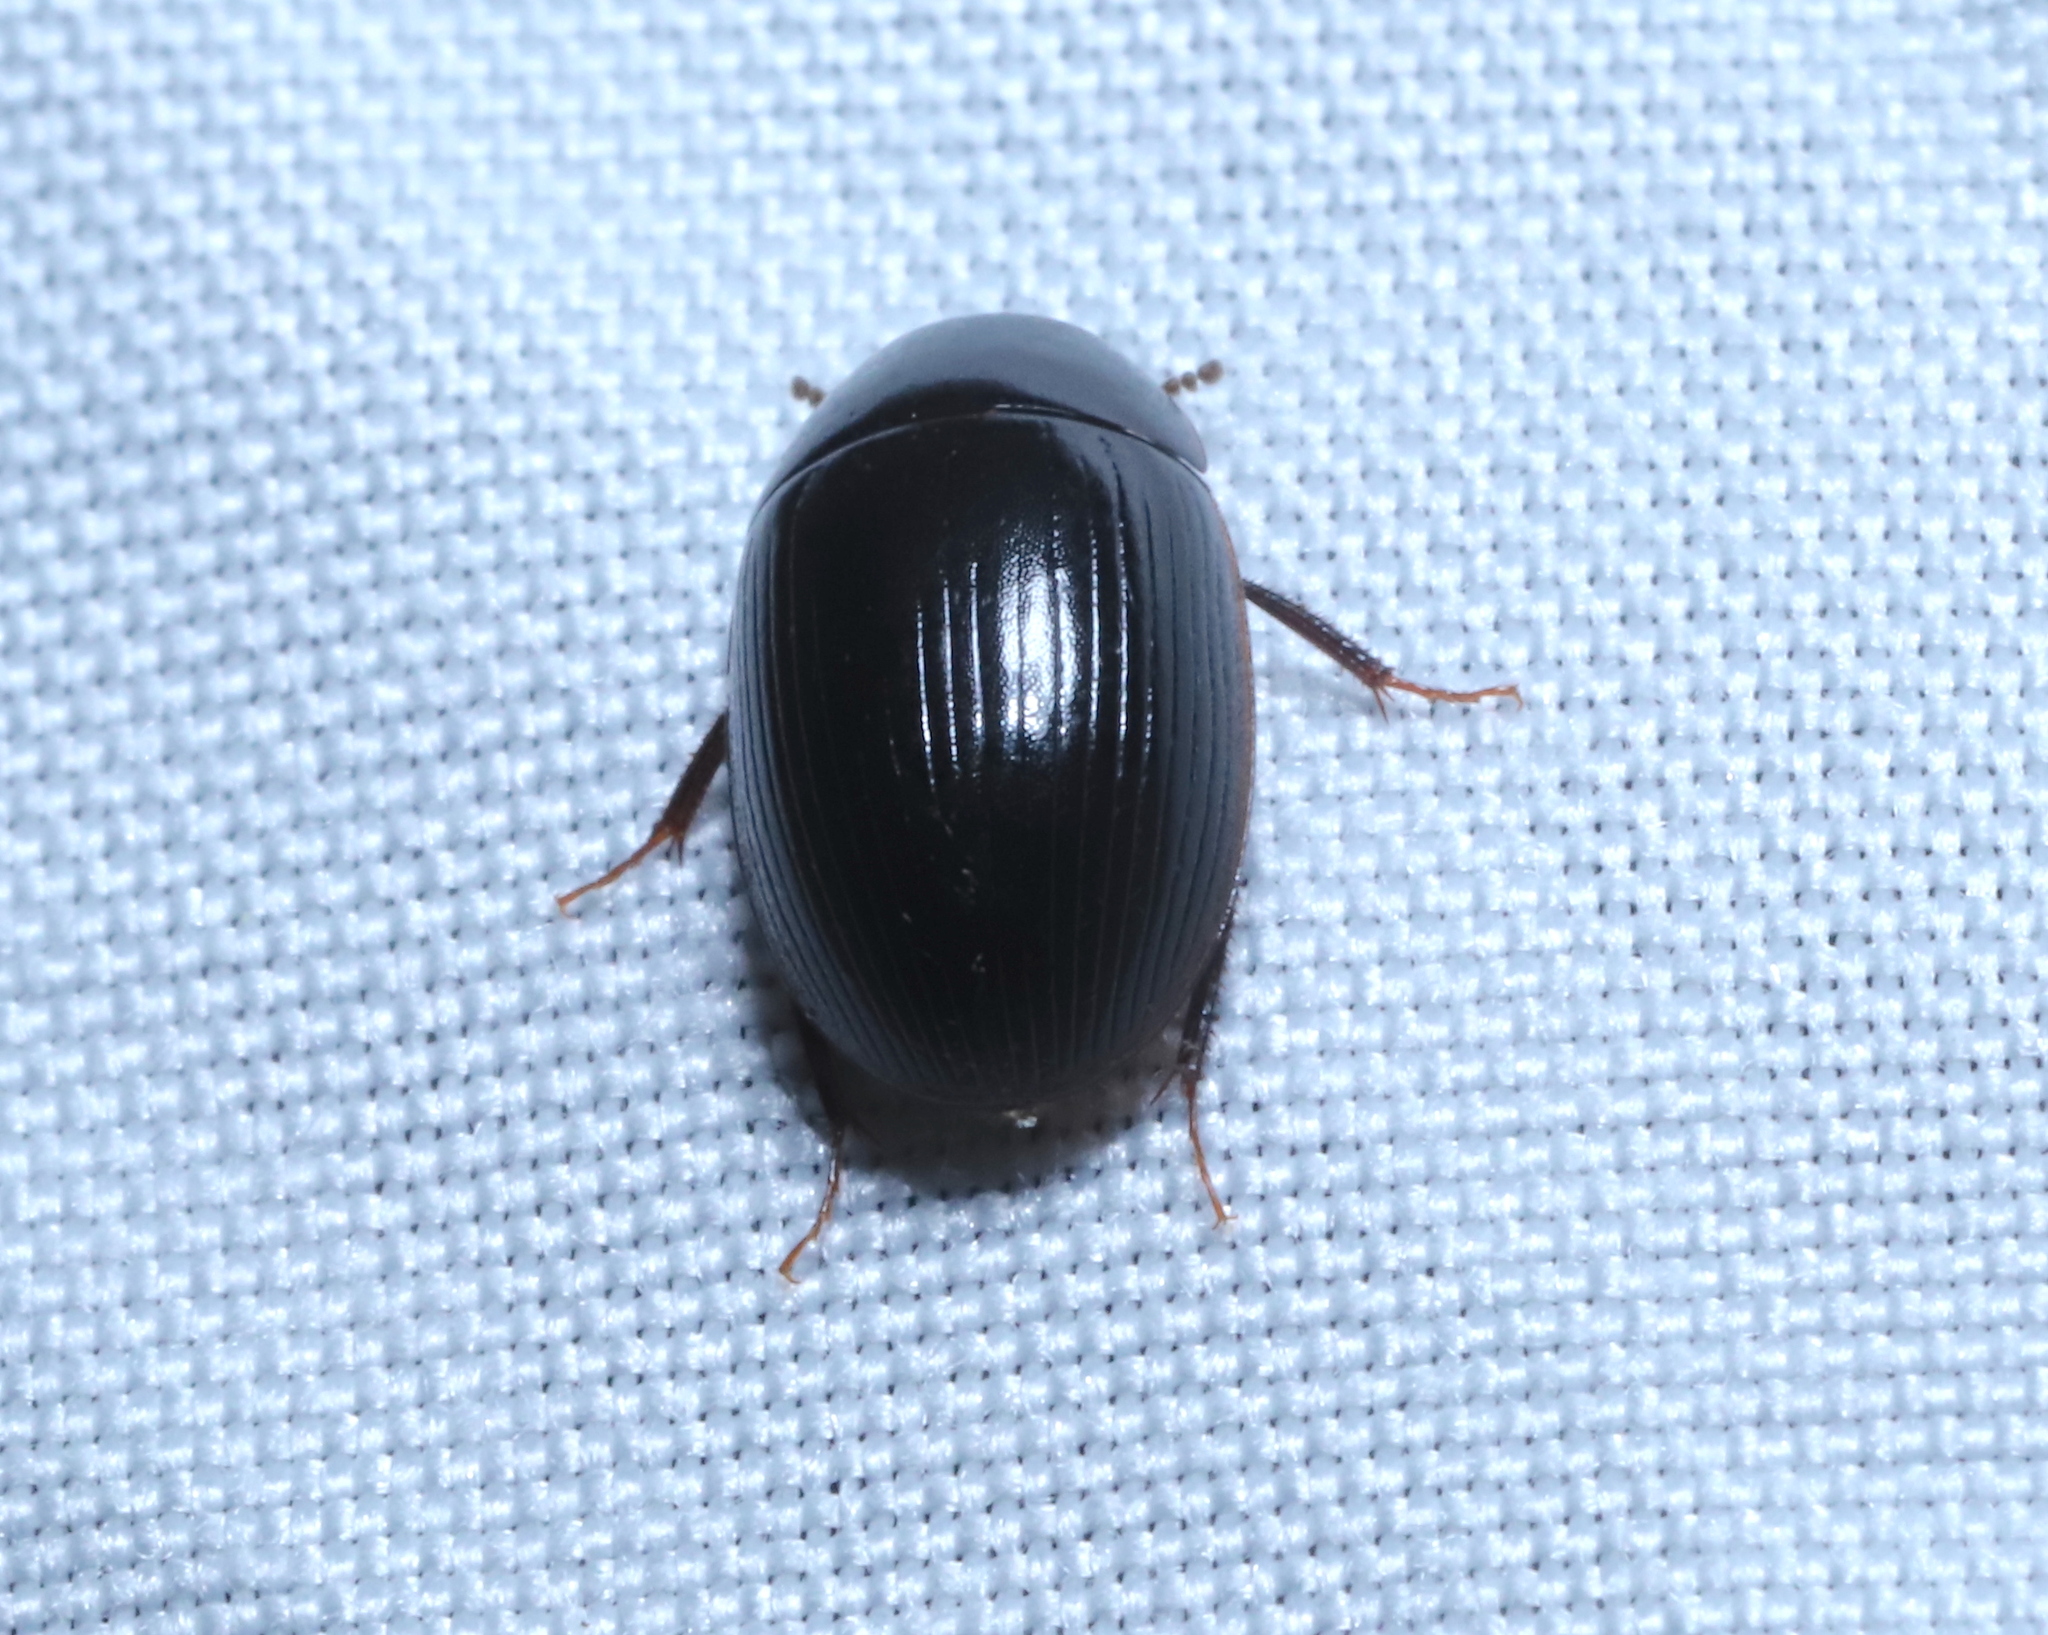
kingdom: Animalia
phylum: Arthropoda
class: Insecta
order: Coleoptera
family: Hydrophilidae
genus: Cymbiodyta
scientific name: Cymbiodyta bifida
